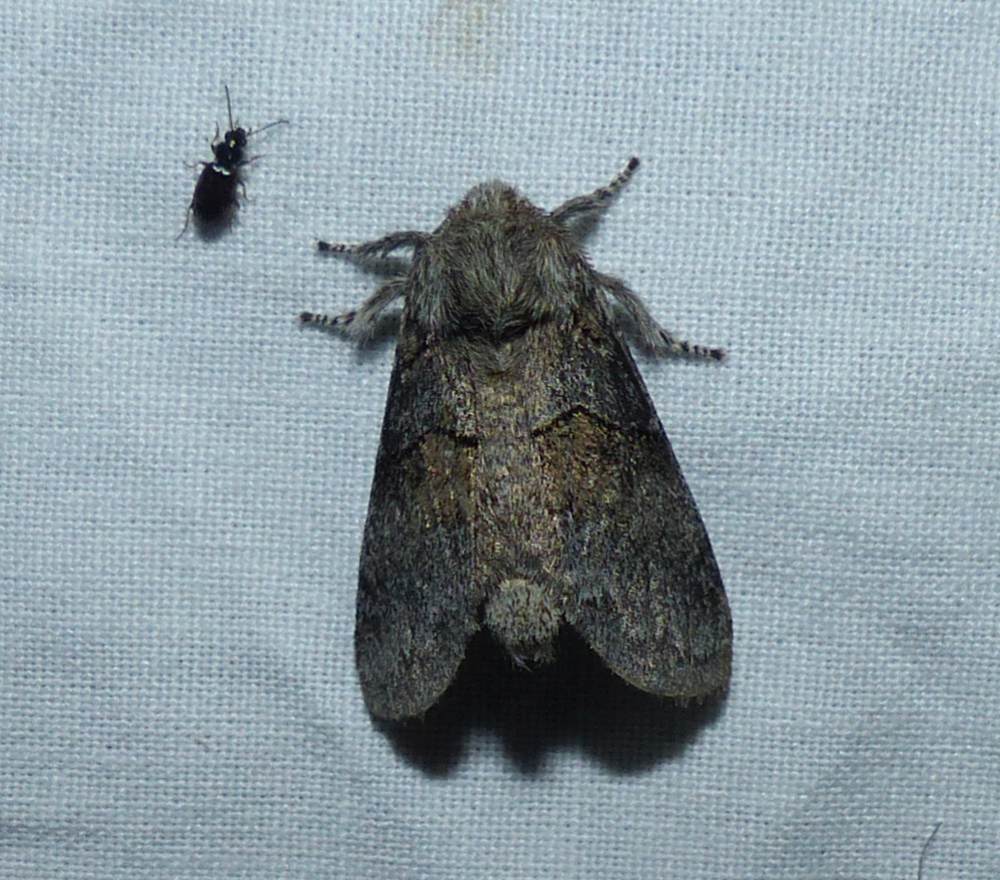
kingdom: Animalia
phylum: Arthropoda
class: Insecta
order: Lepidoptera
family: Notodontidae
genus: Gluphisia
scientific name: Gluphisia septentrionis
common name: Common gluphisia
